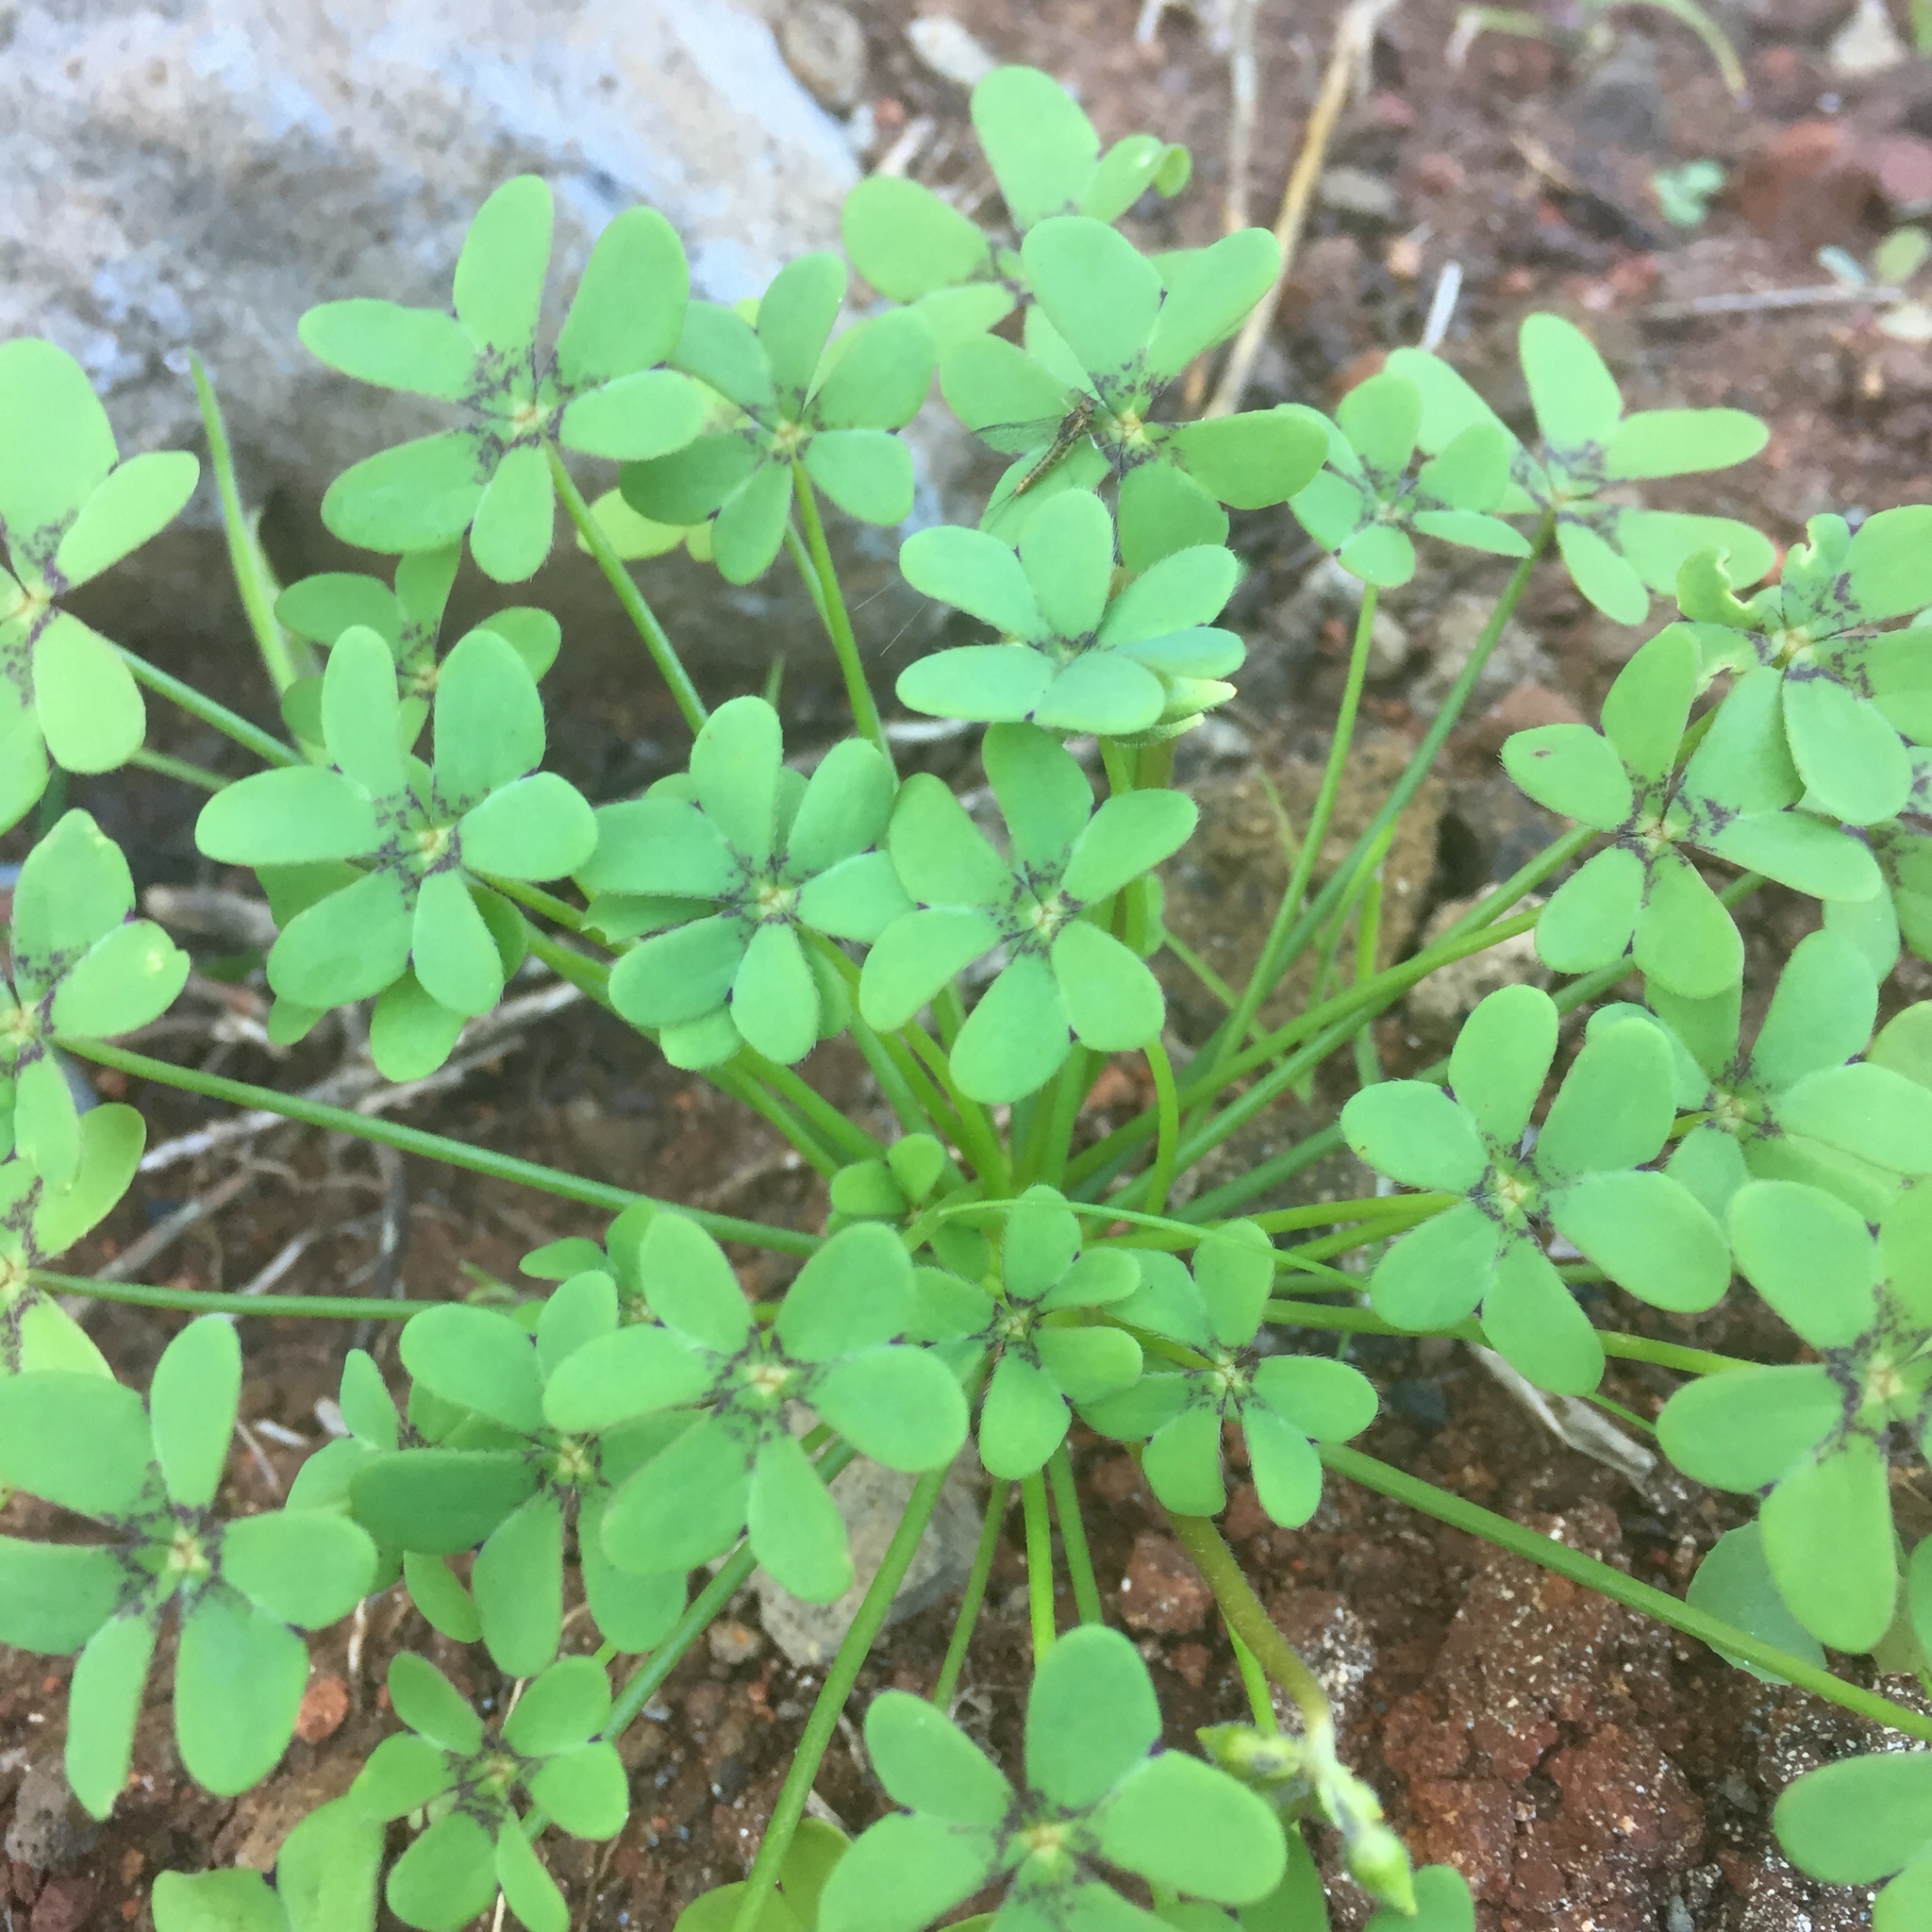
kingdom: Plantae
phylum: Tracheophyta
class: Magnoliopsida
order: Oxalidales
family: Oxalidaceae
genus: Oxalis
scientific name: Oxalis pes-caprae
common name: Bermuda-buttercup
